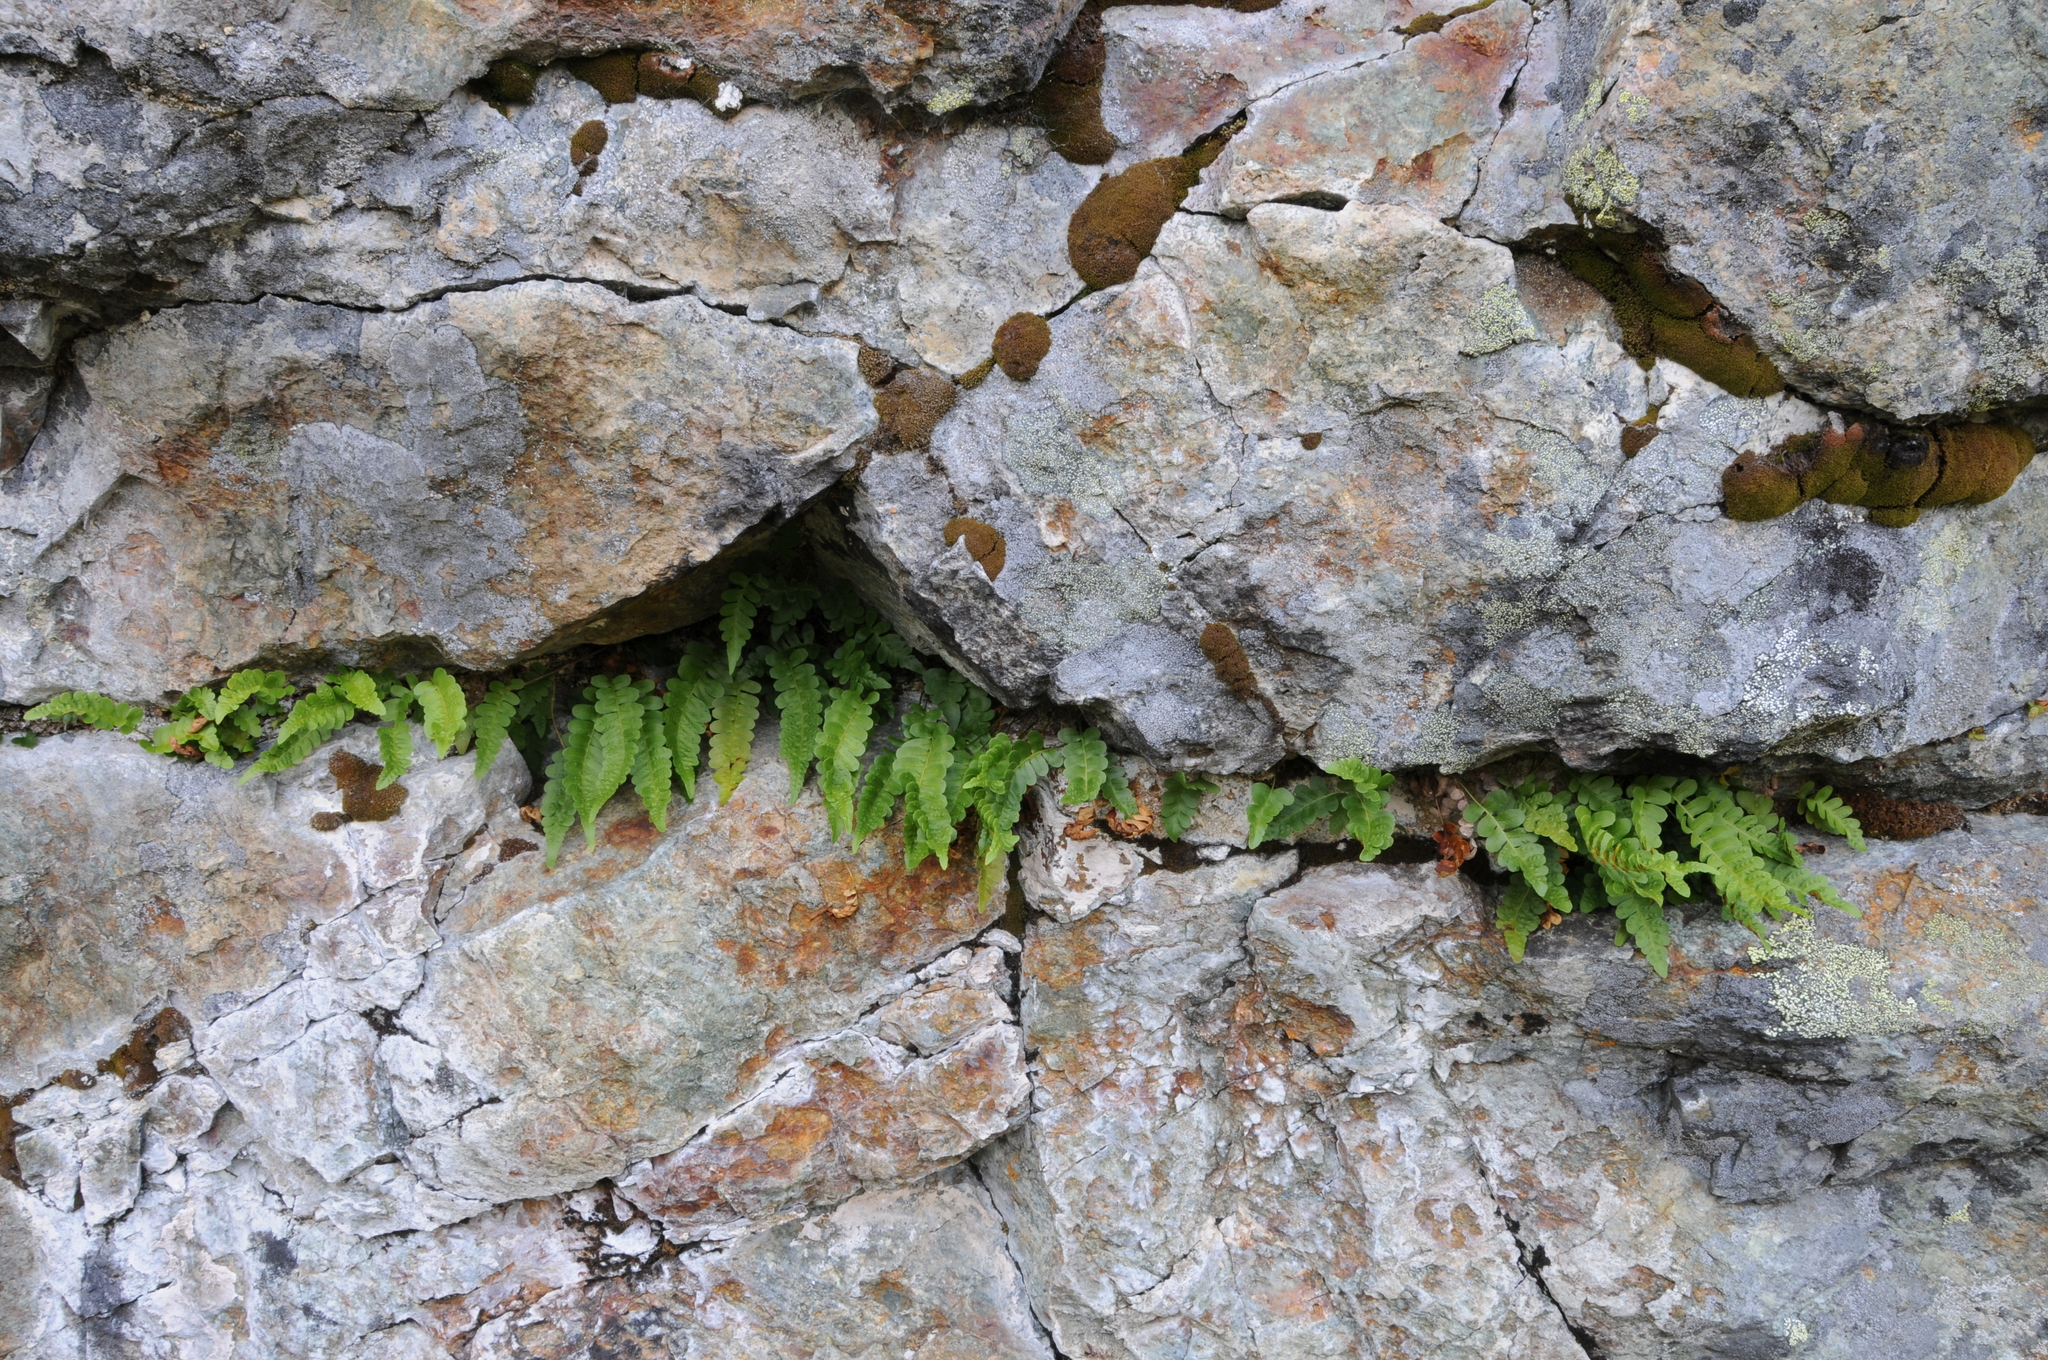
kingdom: Plantae
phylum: Tracheophyta
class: Polypodiopsida
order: Polypodiales
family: Polypodiaceae
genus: Polypodium
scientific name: Polypodium amorphum
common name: Pacific polypody
